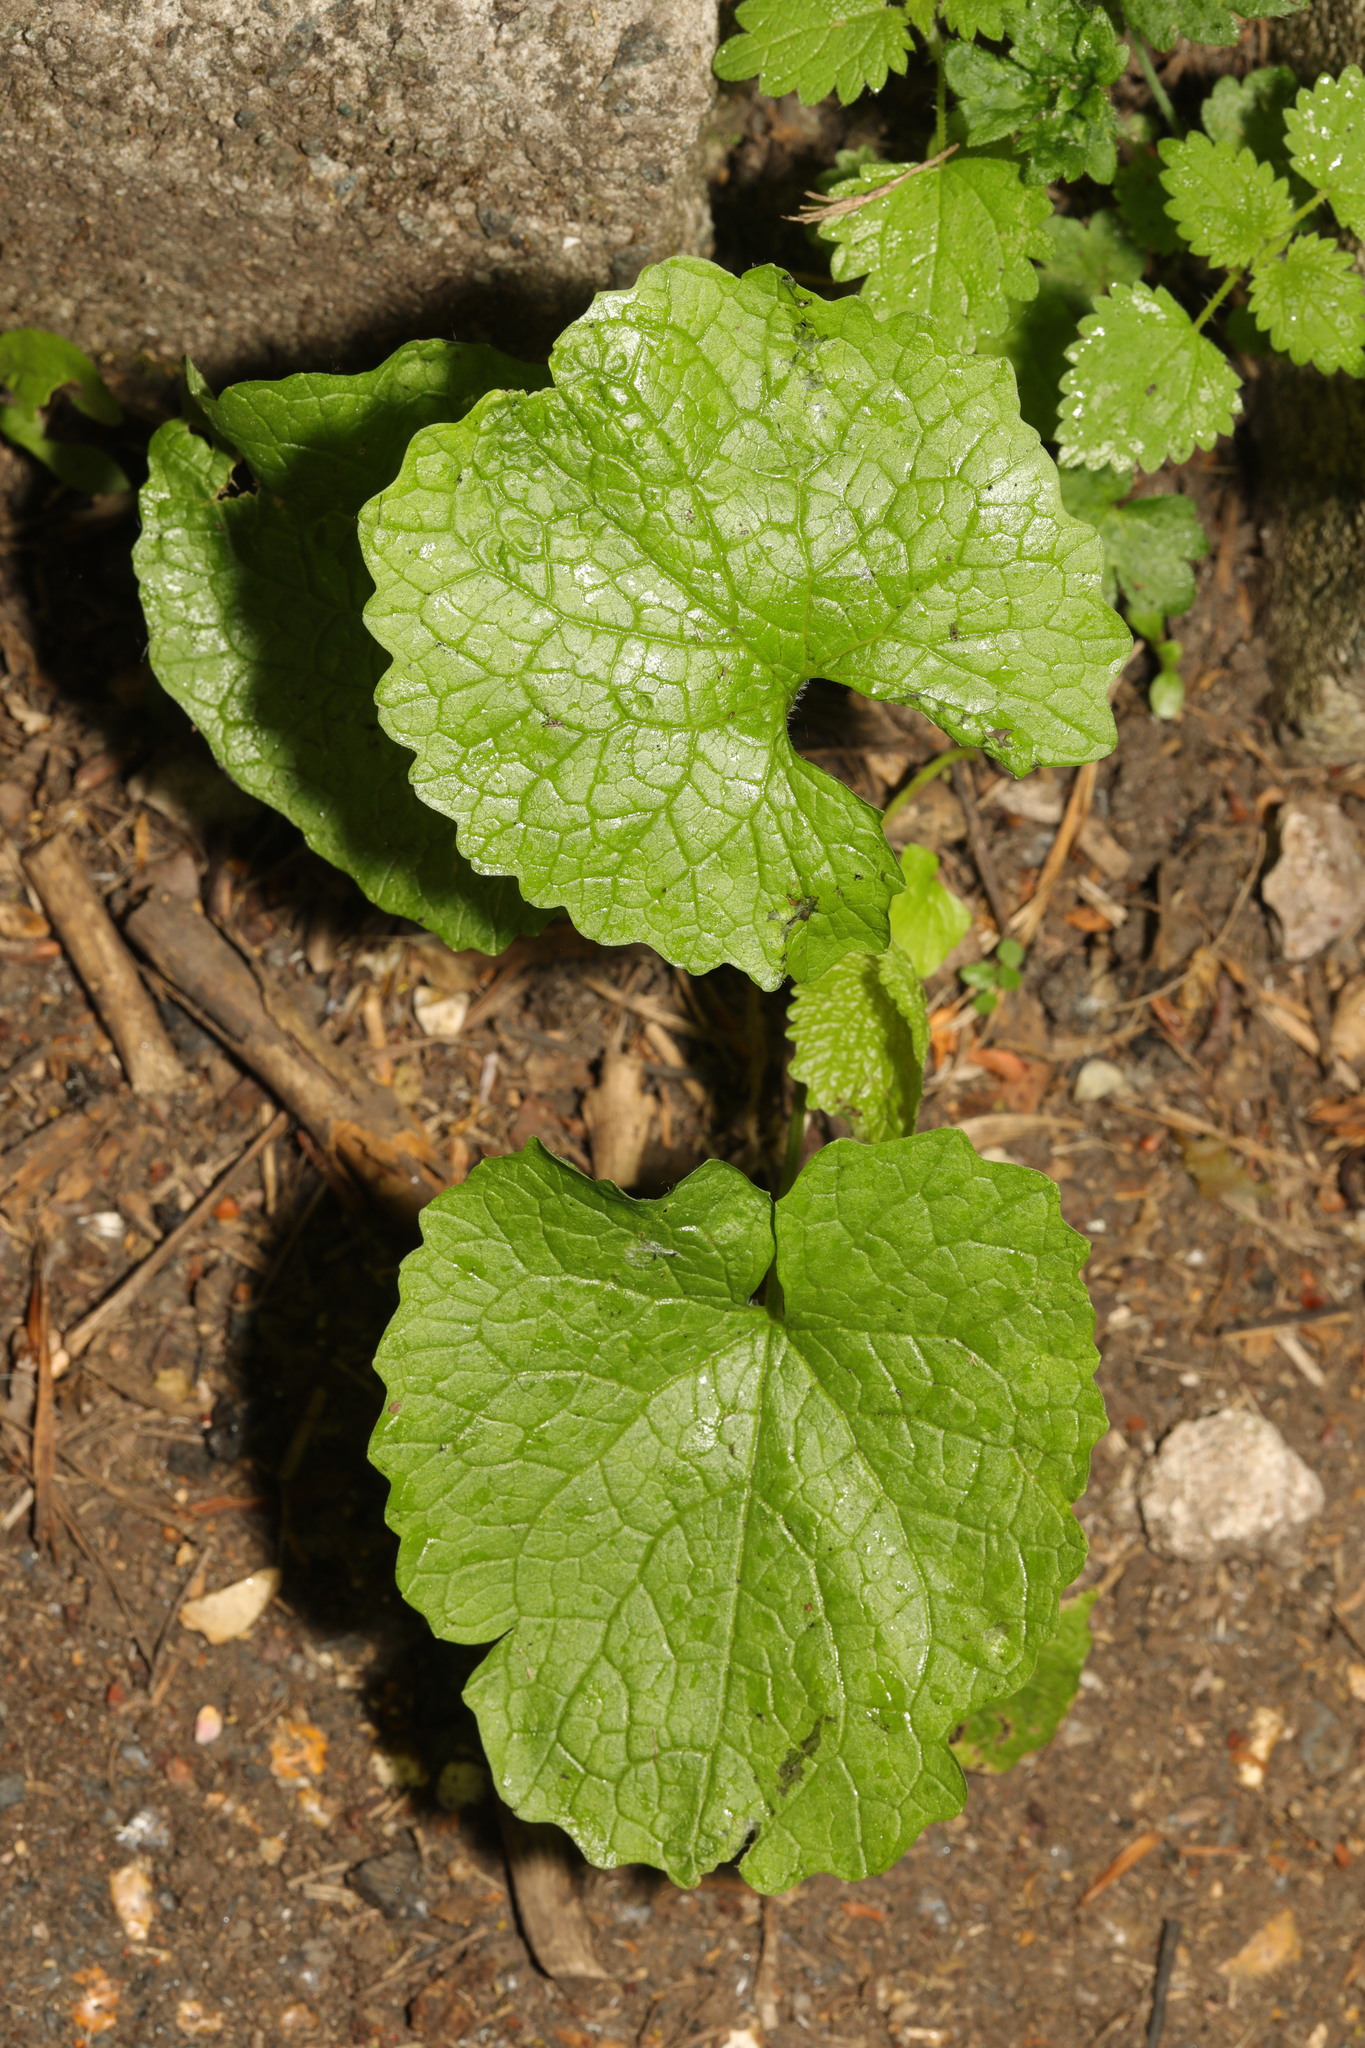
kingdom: Plantae
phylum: Tracheophyta
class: Magnoliopsida
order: Brassicales
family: Brassicaceae
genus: Alliaria
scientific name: Alliaria petiolata
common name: Garlic mustard
